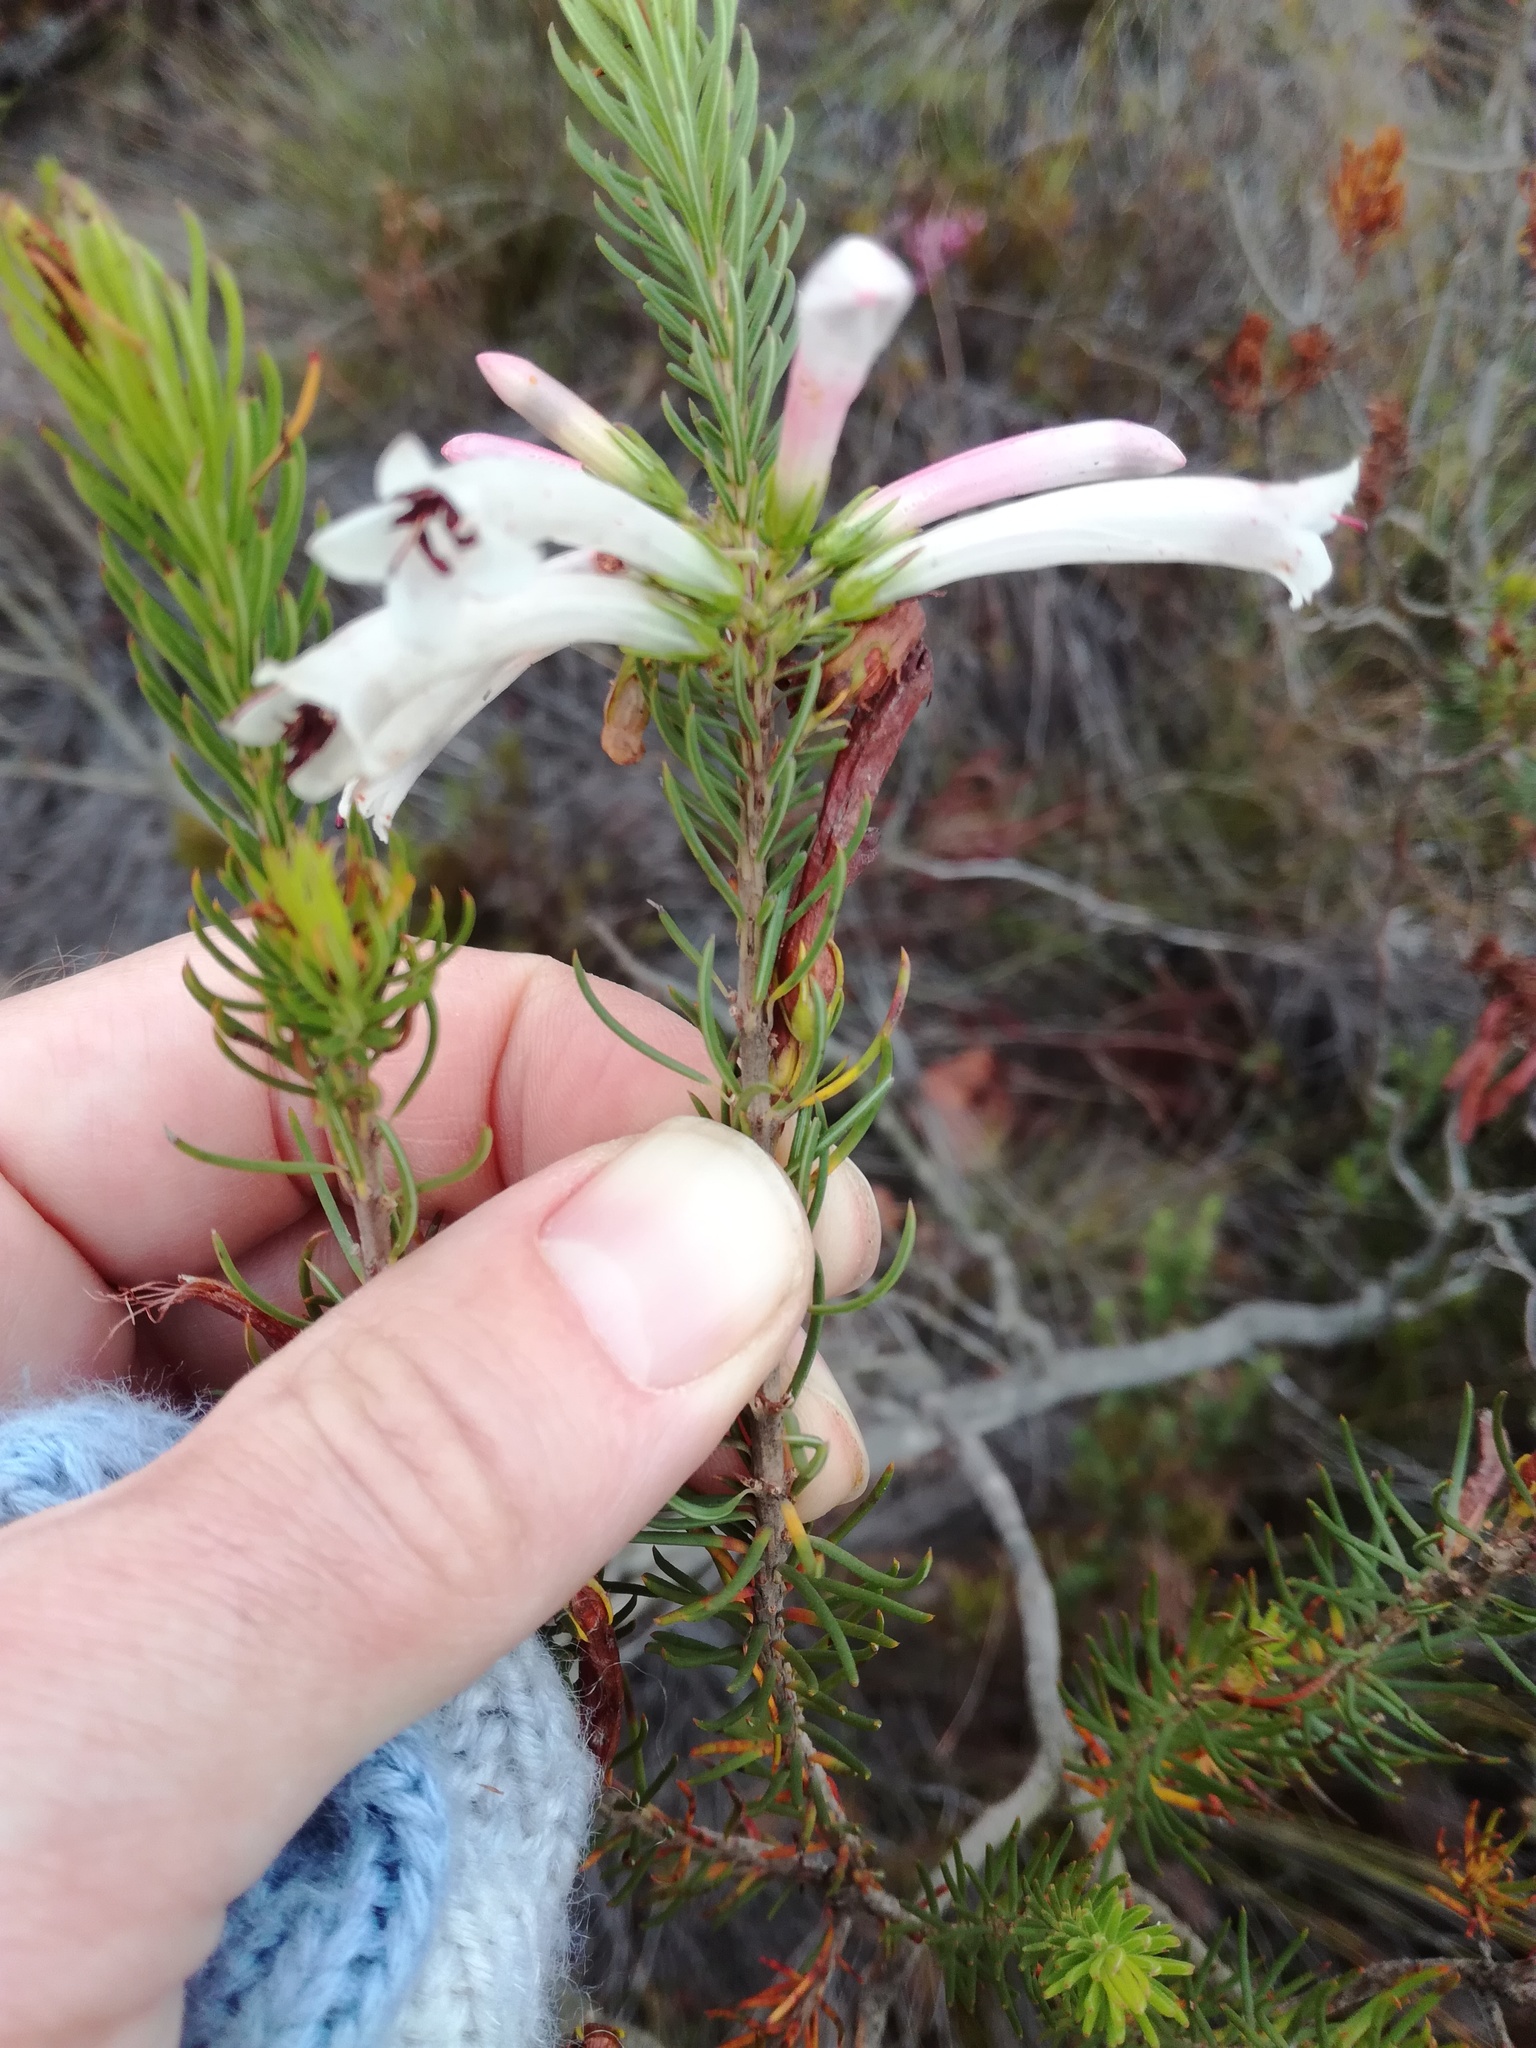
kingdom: Plantae
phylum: Tracheophyta
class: Magnoliopsida
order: Ericales
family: Ericaceae
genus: Erica
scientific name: Erica grandiflora
